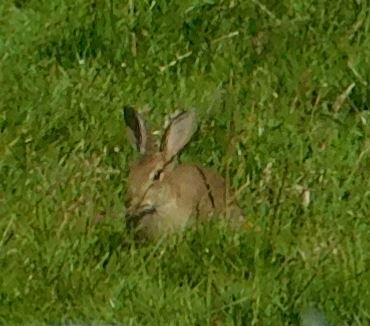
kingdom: Animalia
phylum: Chordata
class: Mammalia
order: Lagomorpha
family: Leporidae
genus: Oryctolagus
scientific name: Oryctolagus cuniculus
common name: European rabbit
